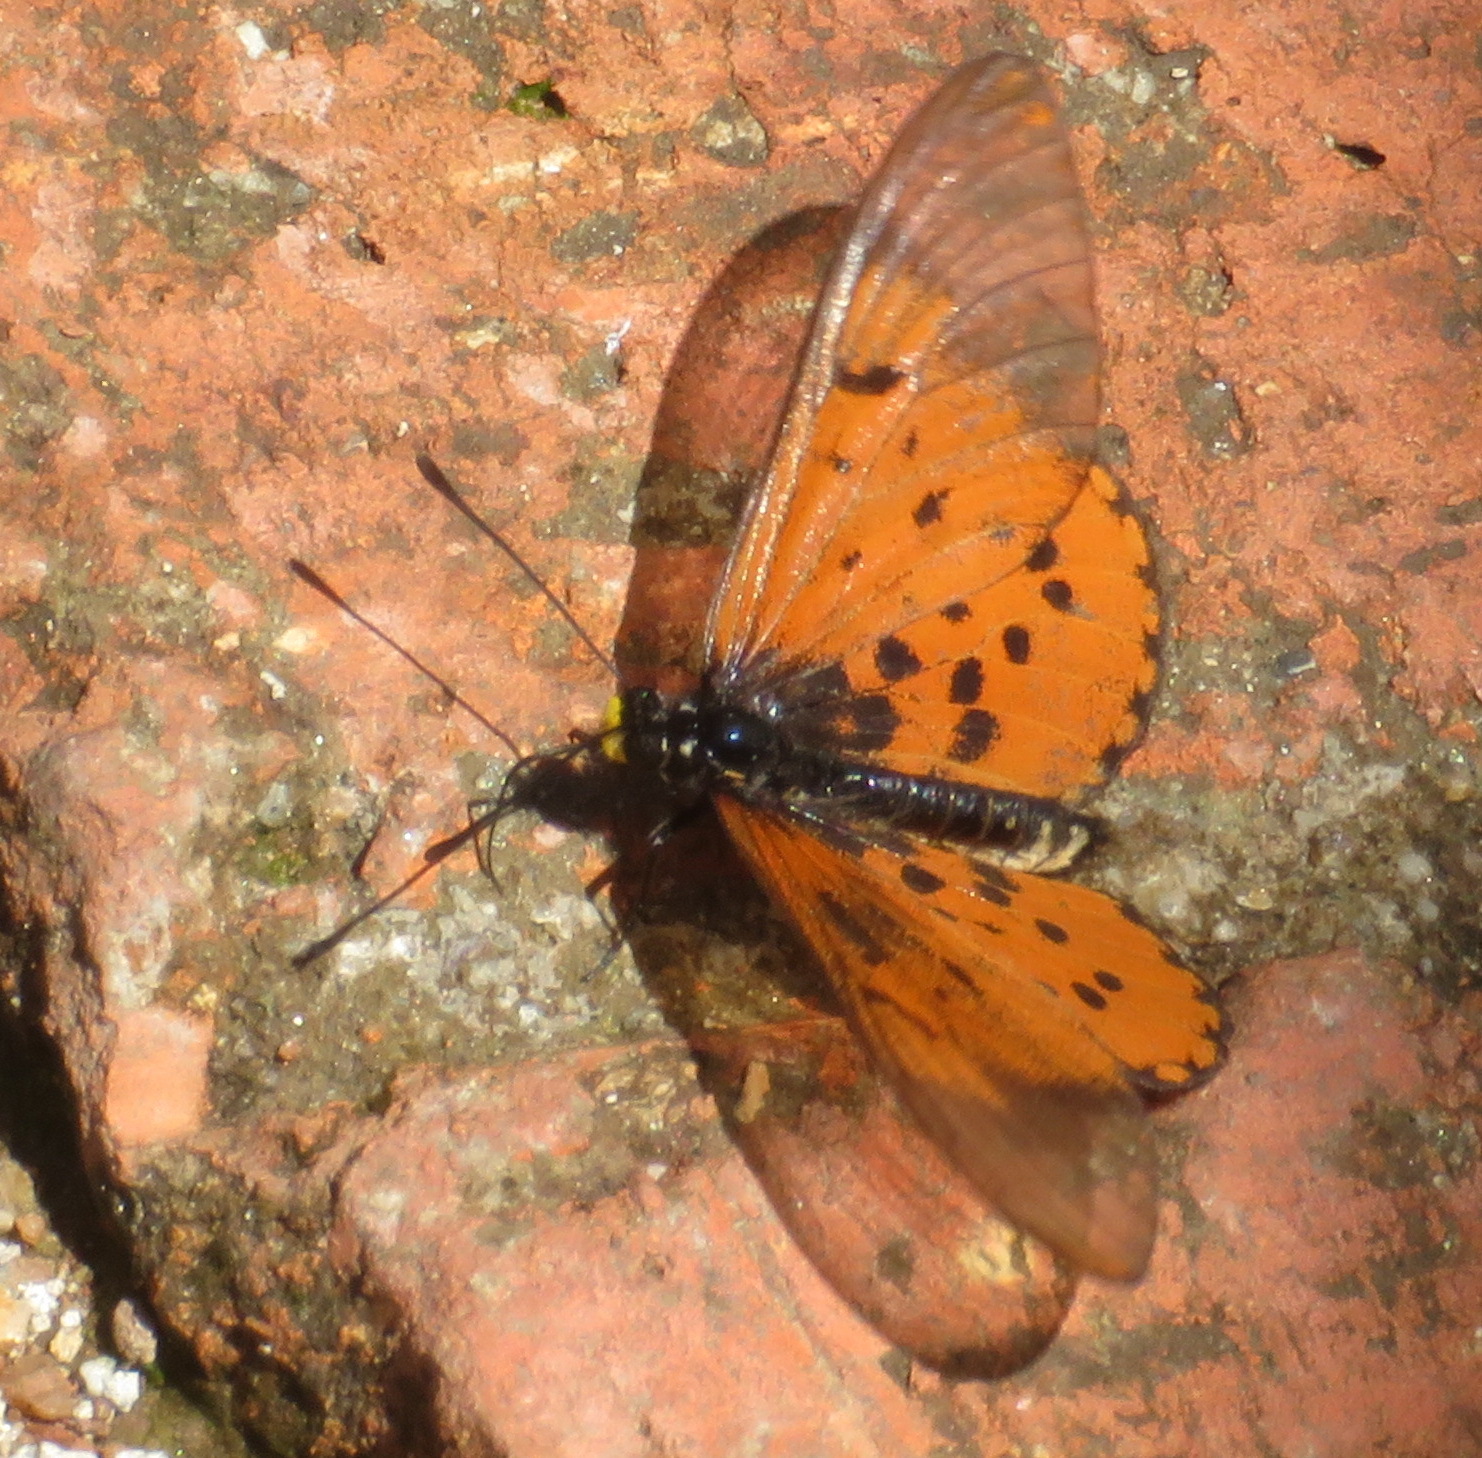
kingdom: Animalia
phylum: Arthropoda
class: Insecta
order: Lepidoptera
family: Nymphalidae
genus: Acraea
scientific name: Acraea horta
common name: Garden acraea
